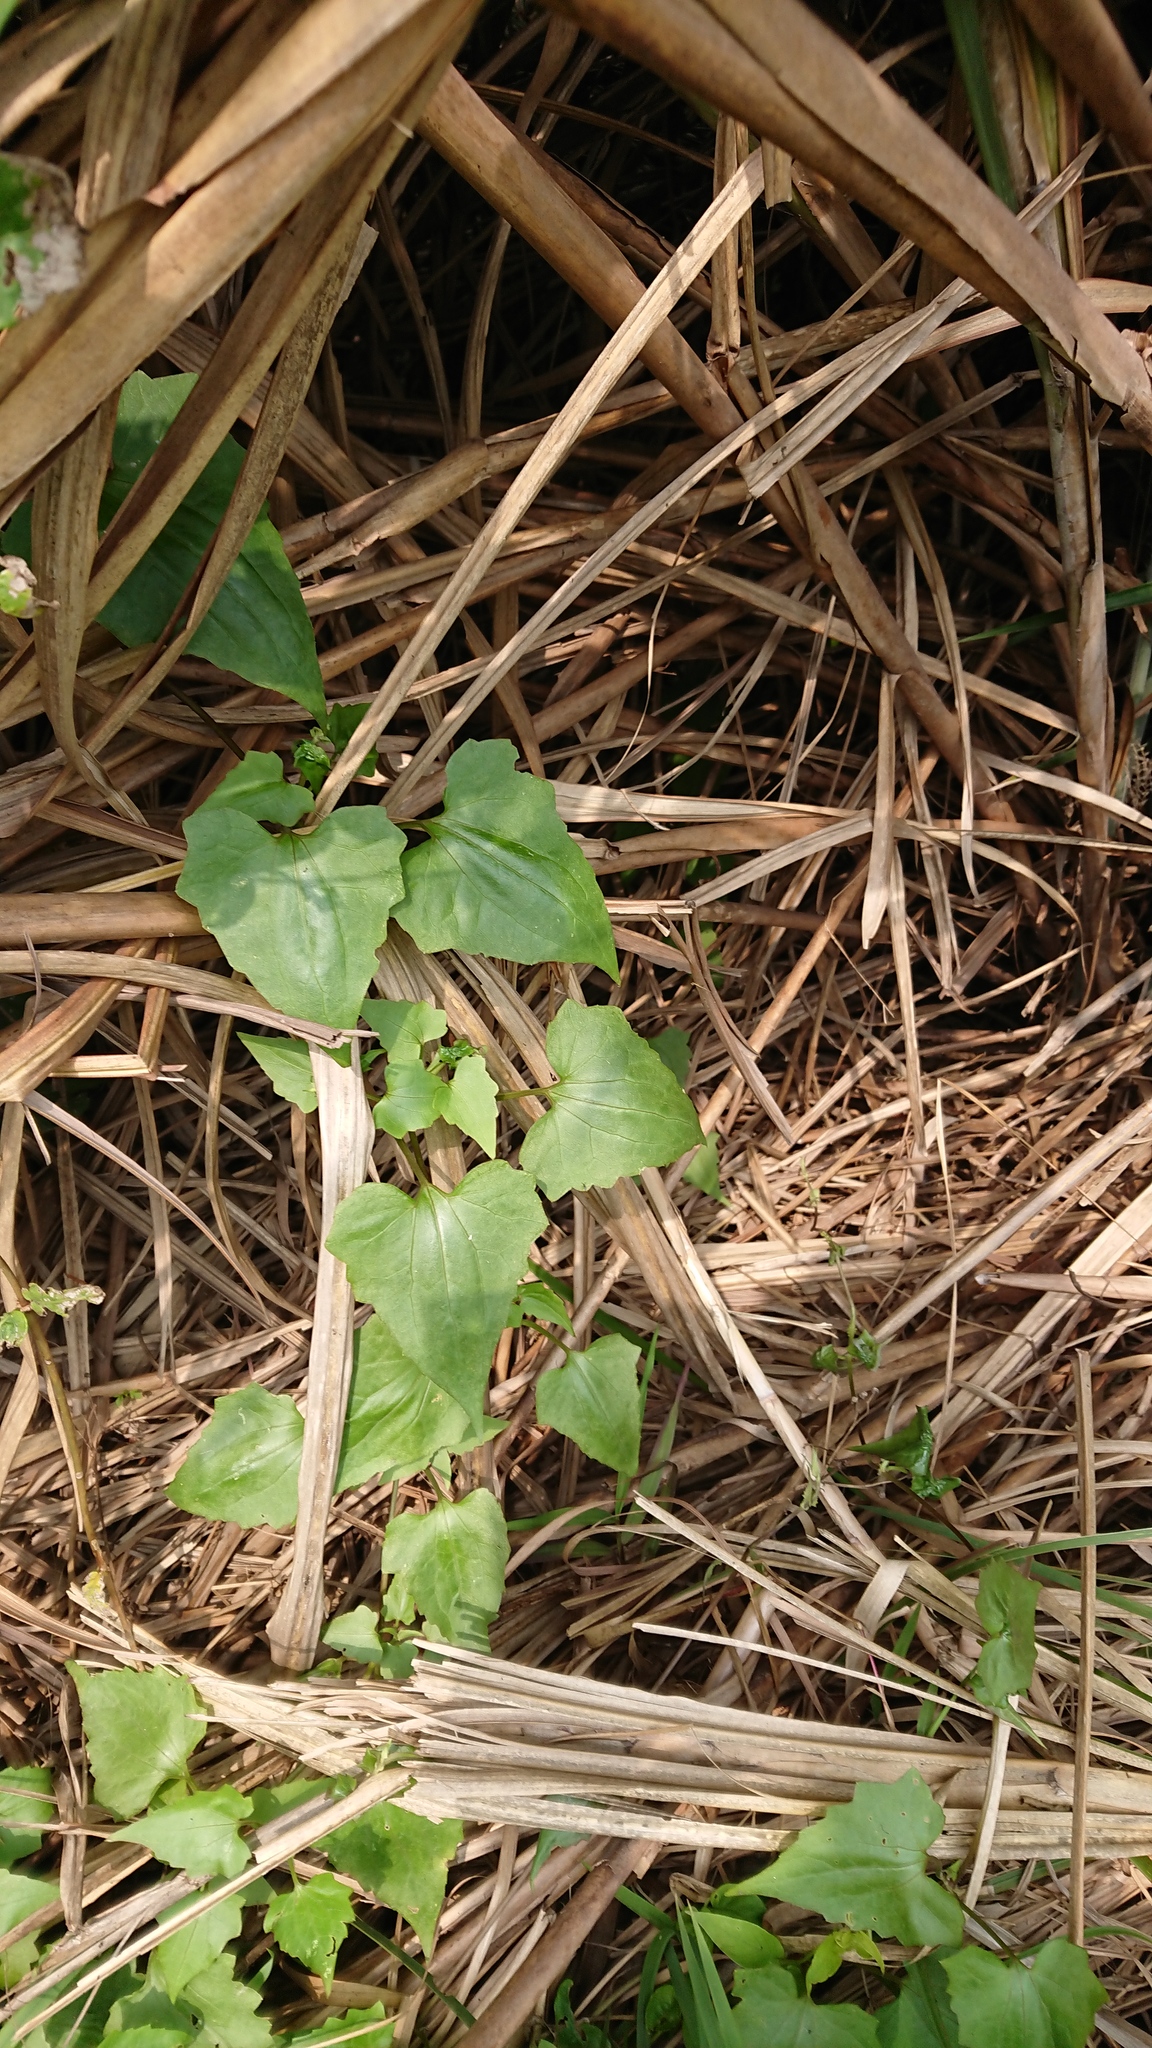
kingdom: Plantae
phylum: Tracheophyta
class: Magnoliopsida
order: Asterales
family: Asteraceae
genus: Mikania
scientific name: Mikania micrantha
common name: Mile-a-minute
